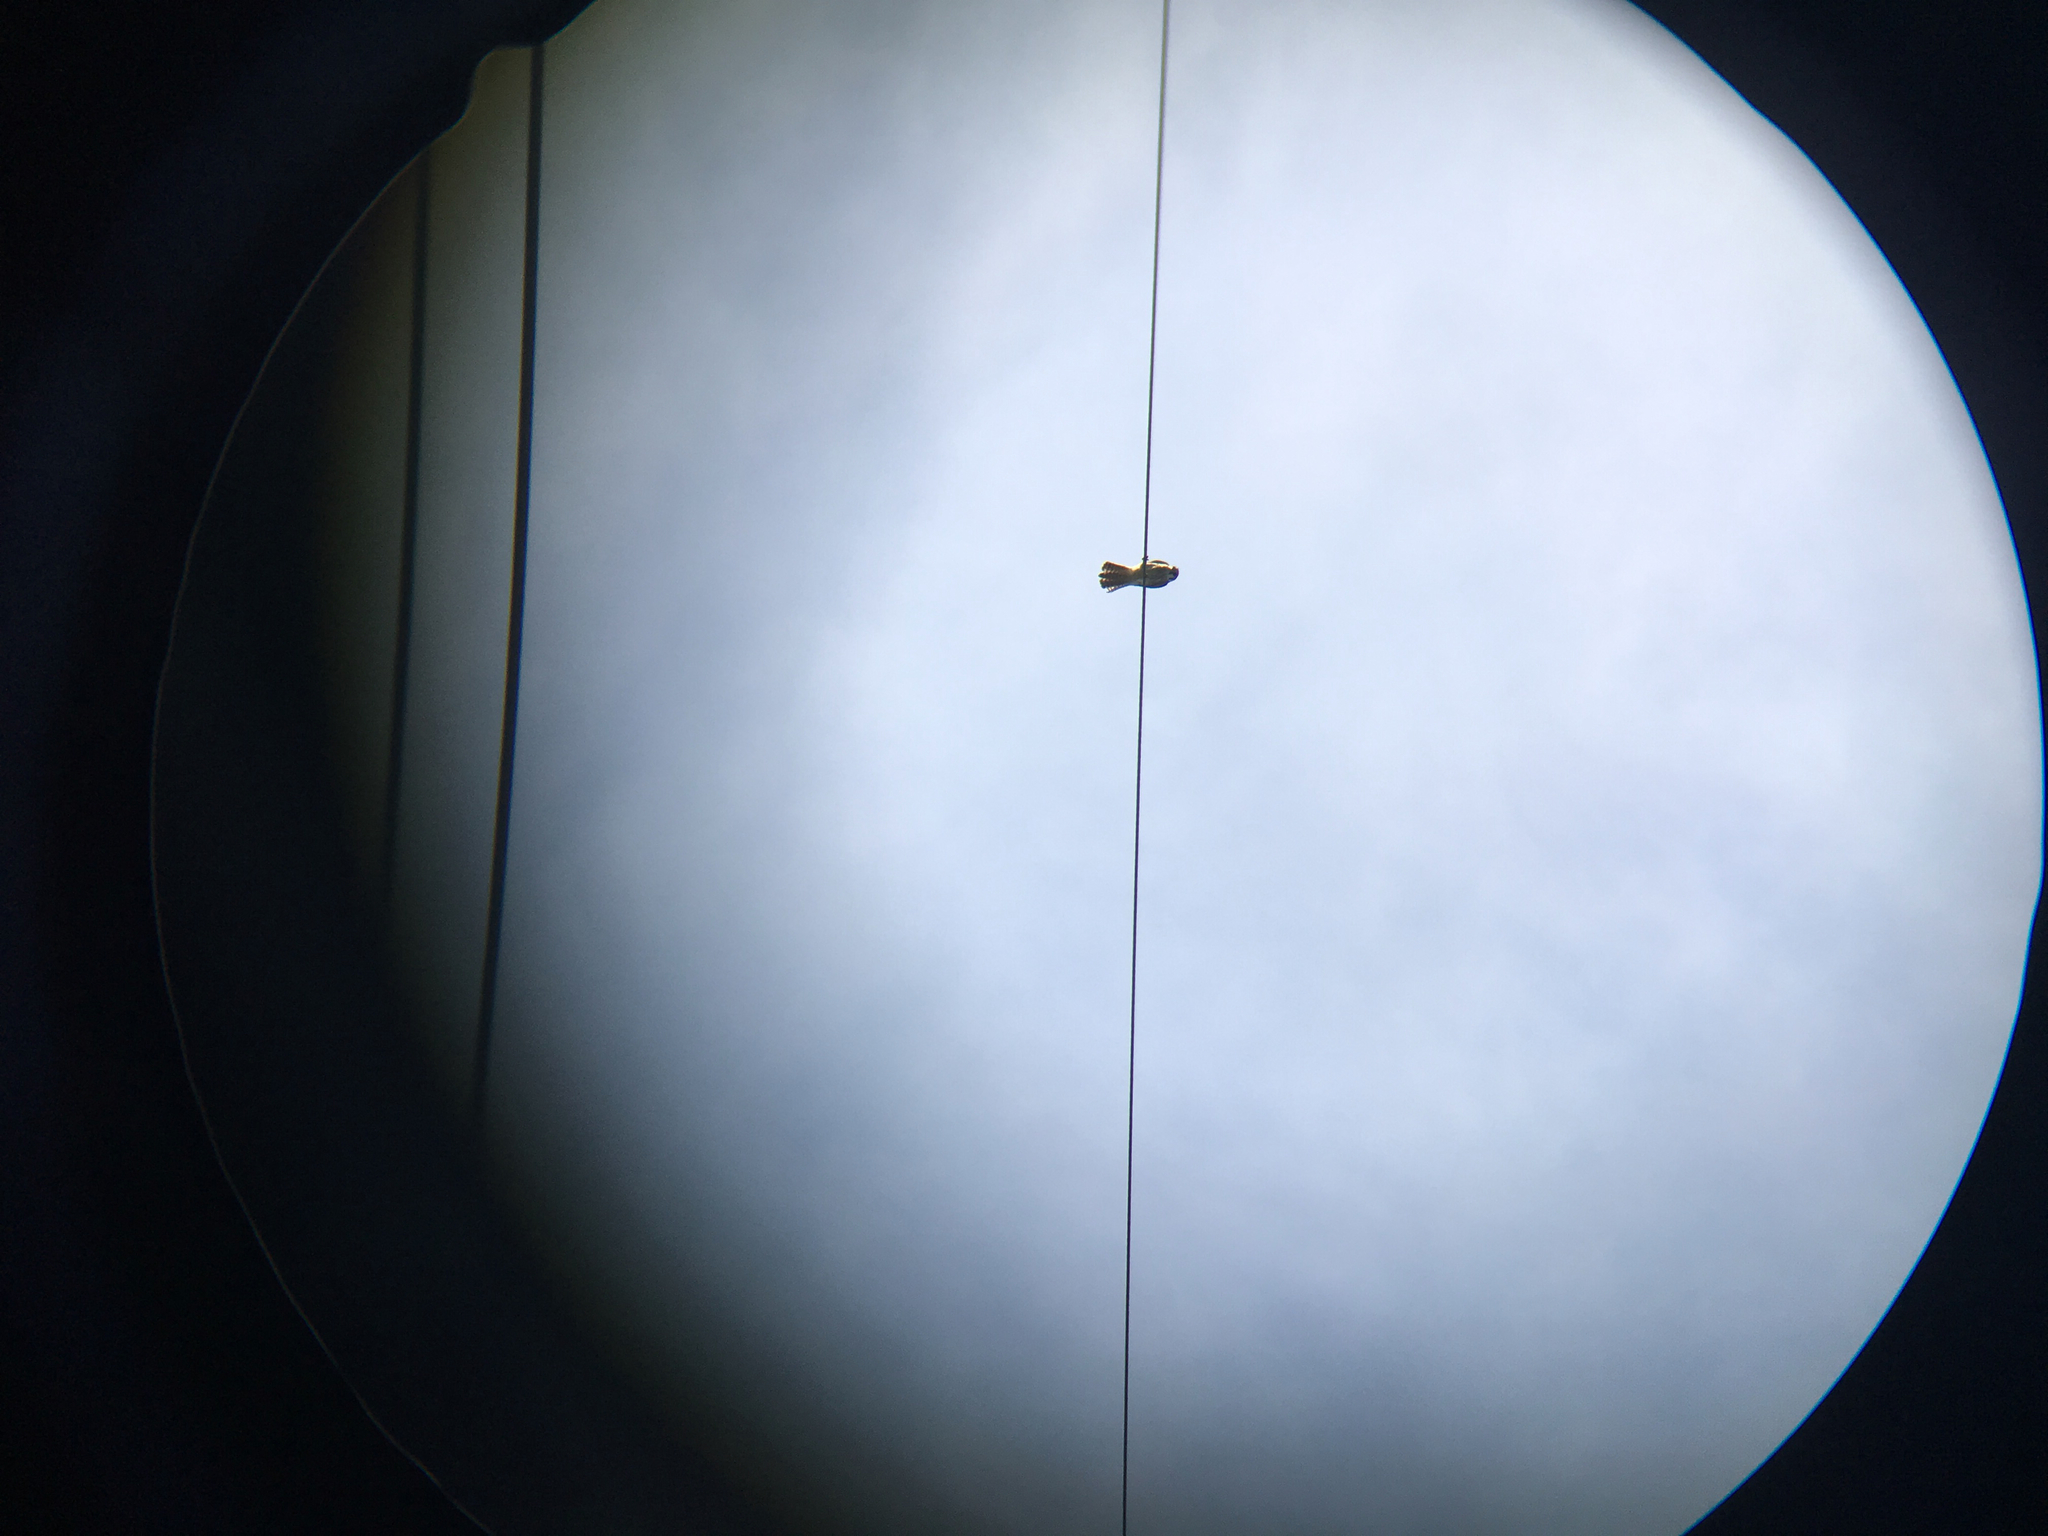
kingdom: Animalia
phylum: Chordata
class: Aves
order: Falconiformes
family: Falconidae
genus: Falco
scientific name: Falco sparverius
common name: American kestrel
